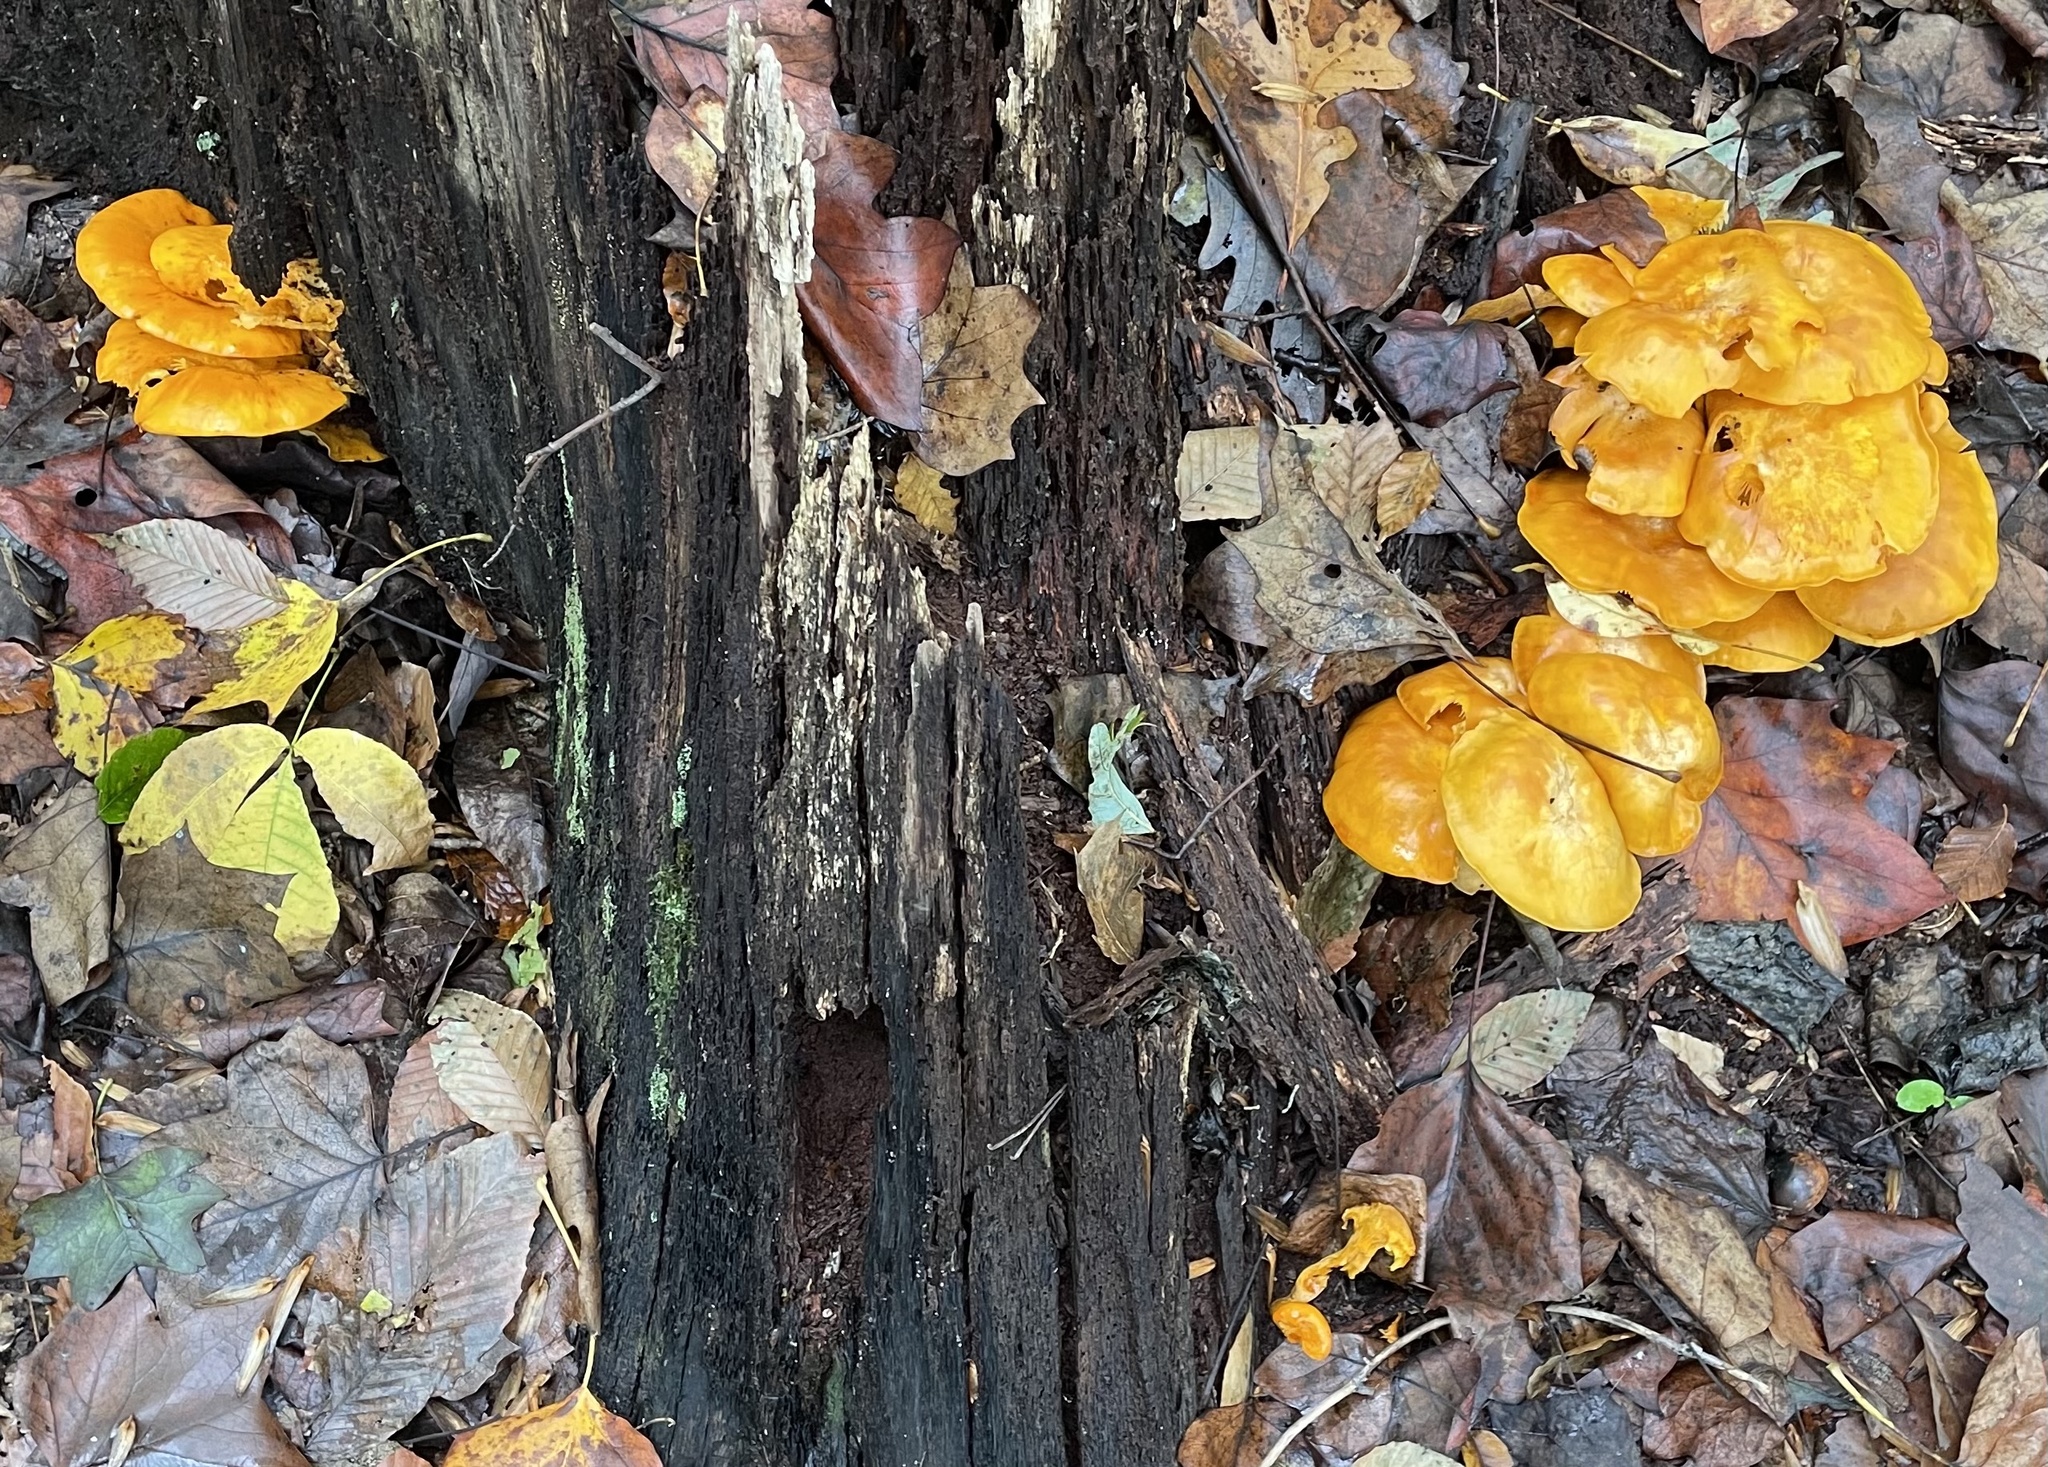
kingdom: Fungi
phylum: Basidiomycota
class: Agaricomycetes
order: Agaricales
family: Omphalotaceae
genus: Omphalotus
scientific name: Omphalotus illudens
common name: Jack o lantern
